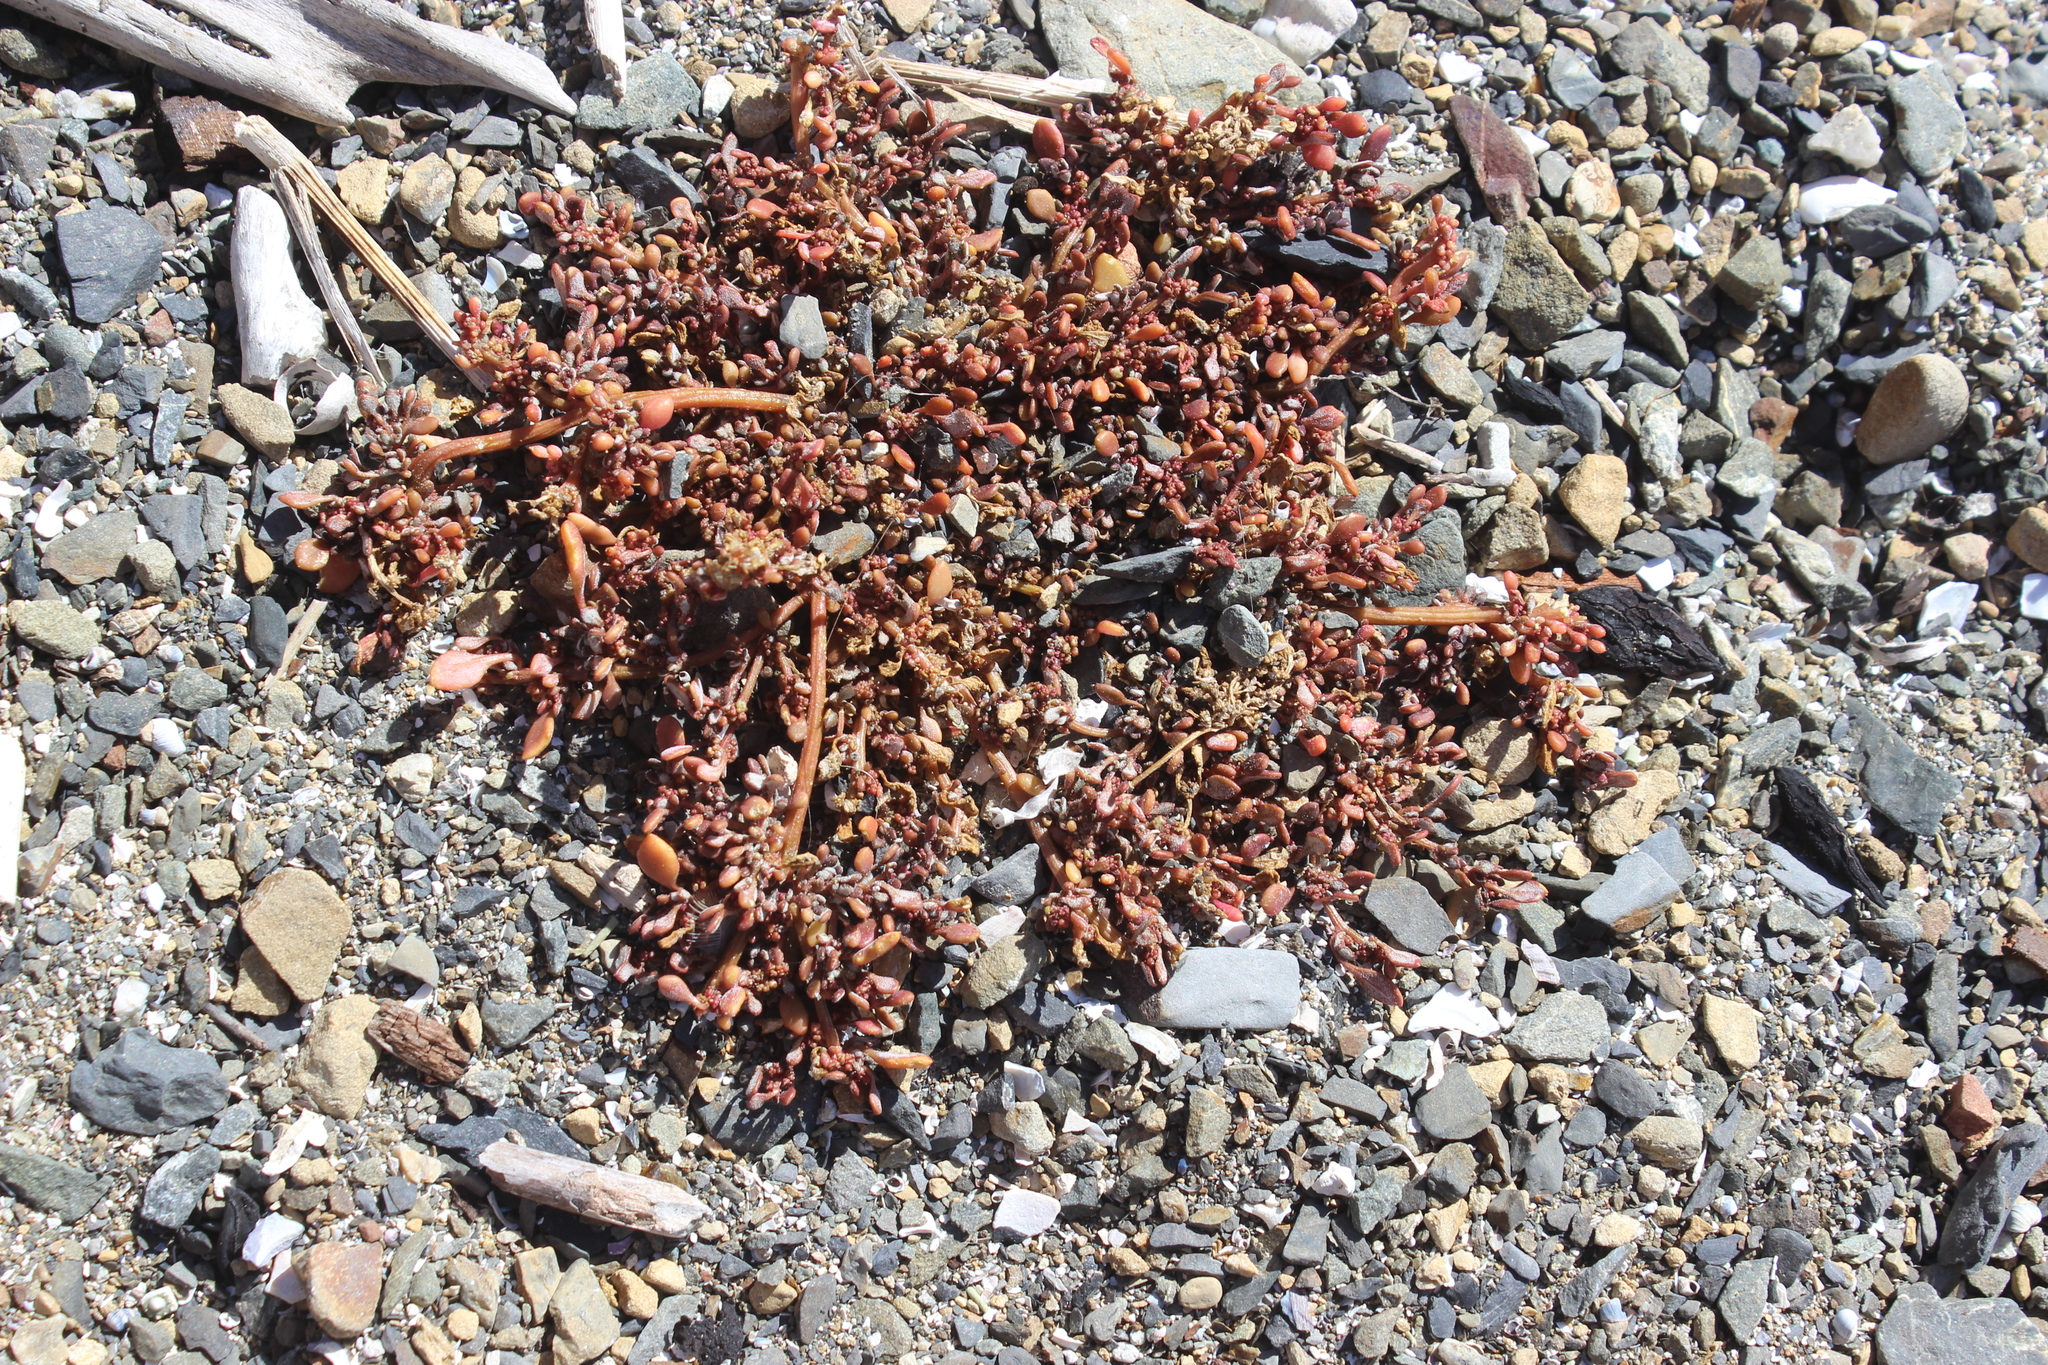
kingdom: Plantae
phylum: Tracheophyta
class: Magnoliopsida
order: Caryophyllales
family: Amaranthaceae
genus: Oxybasis
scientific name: Oxybasis ambigua
